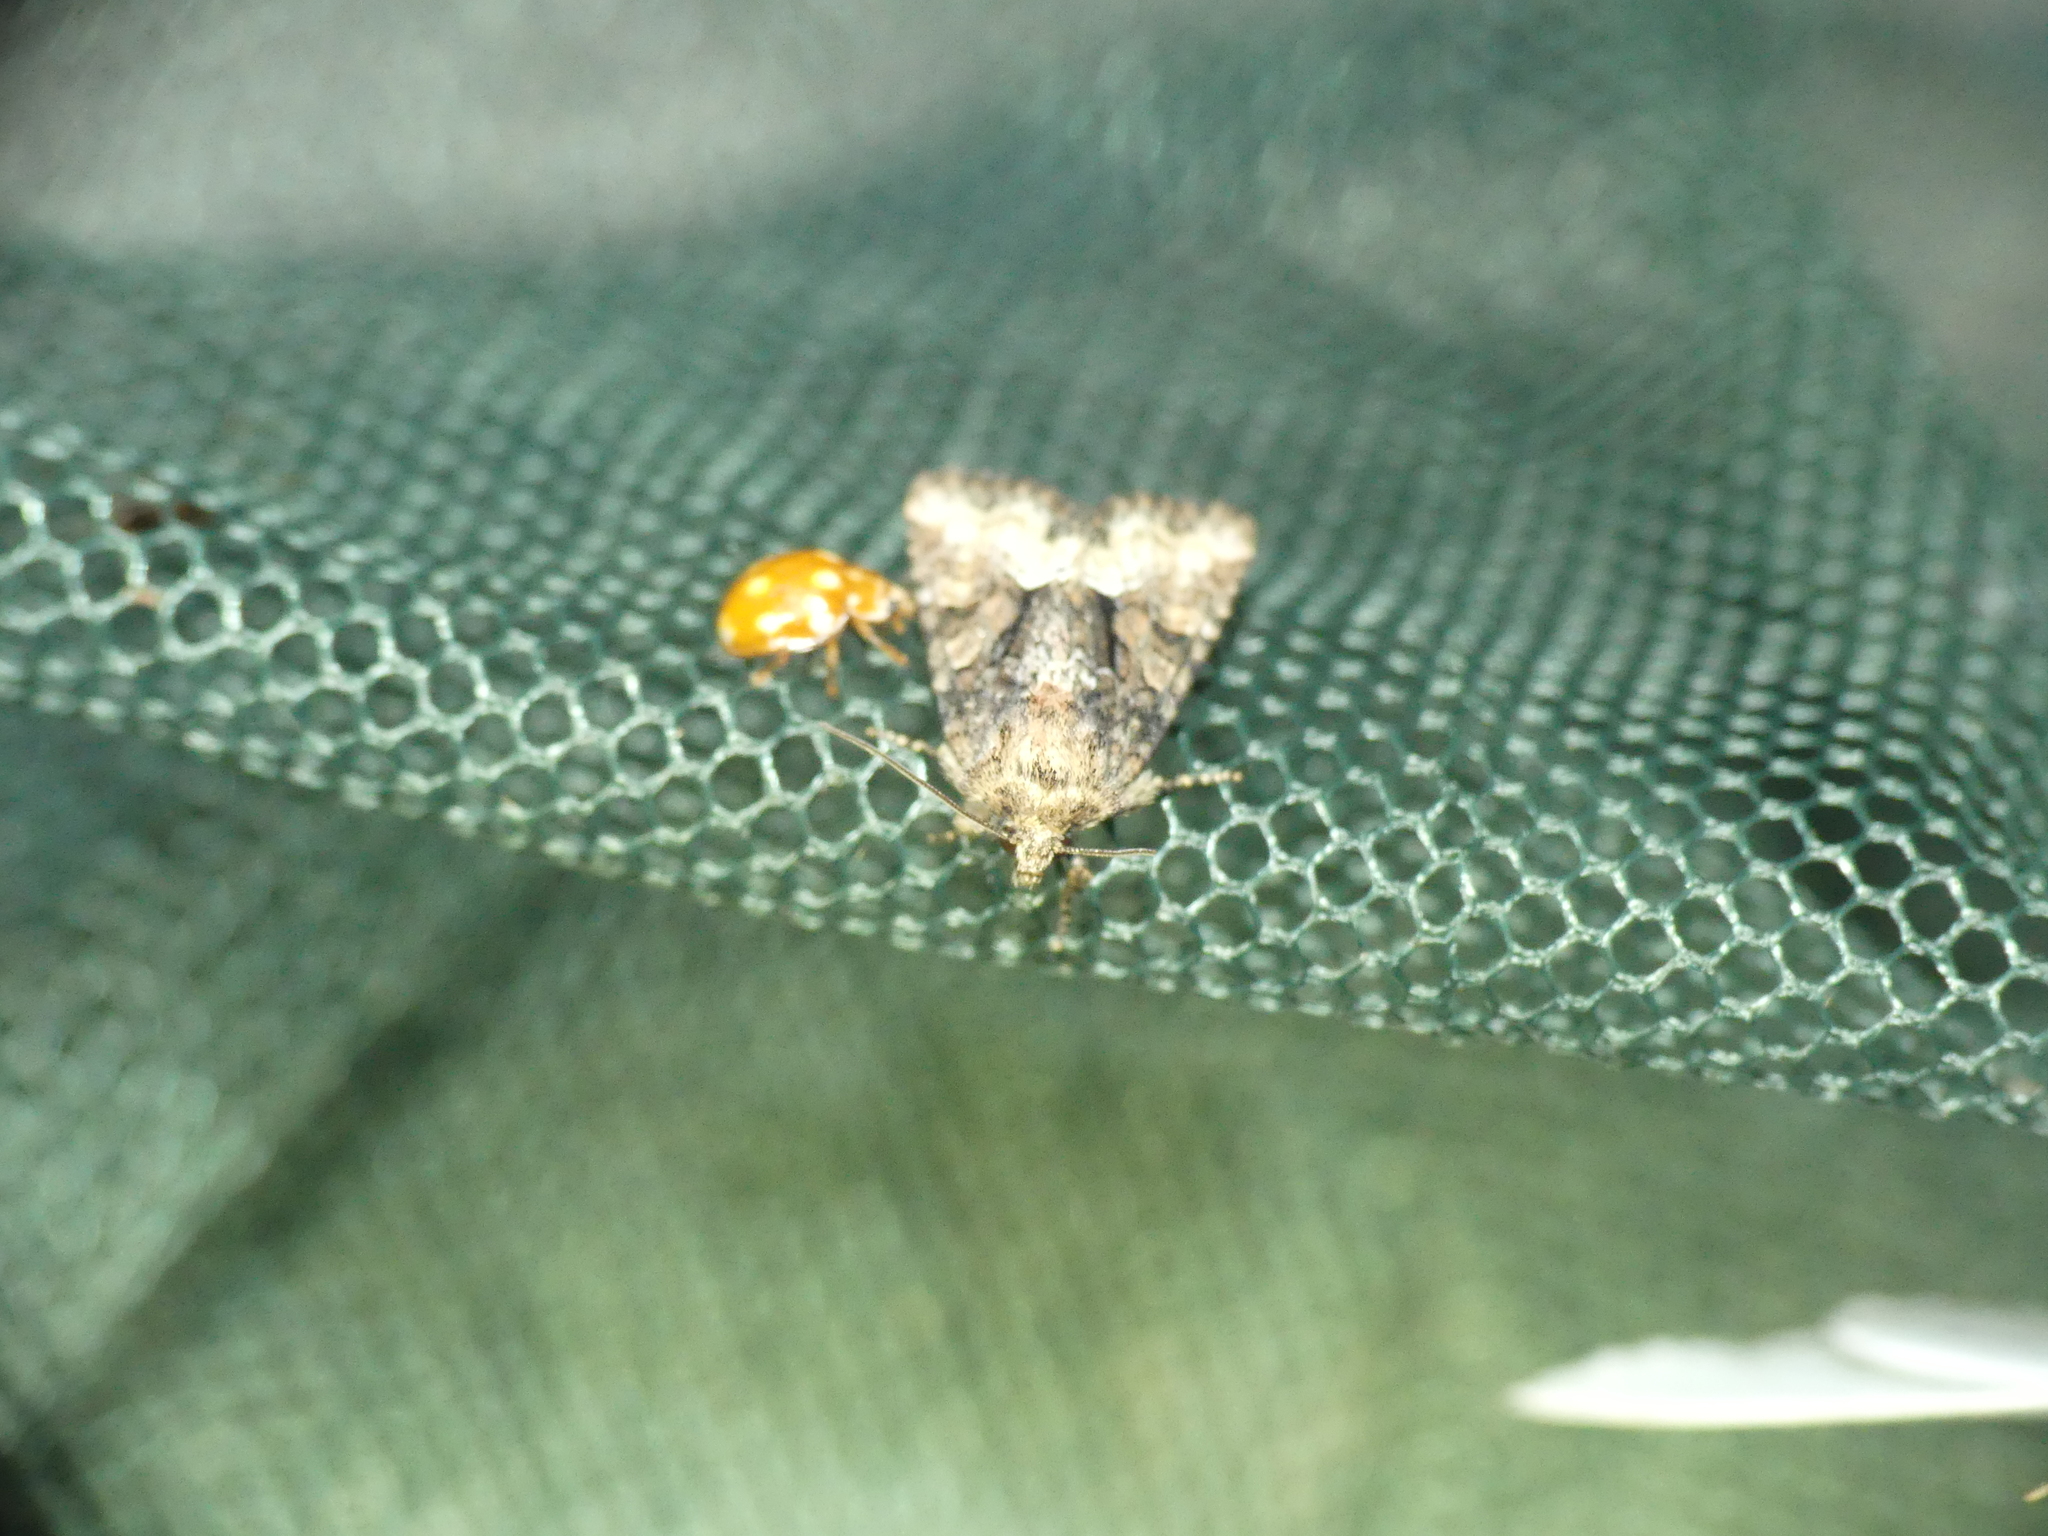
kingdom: Animalia
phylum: Arthropoda
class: Insecta
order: Coleoptera
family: Coccinellidae
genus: Calvia
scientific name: Calvia decemguttata
